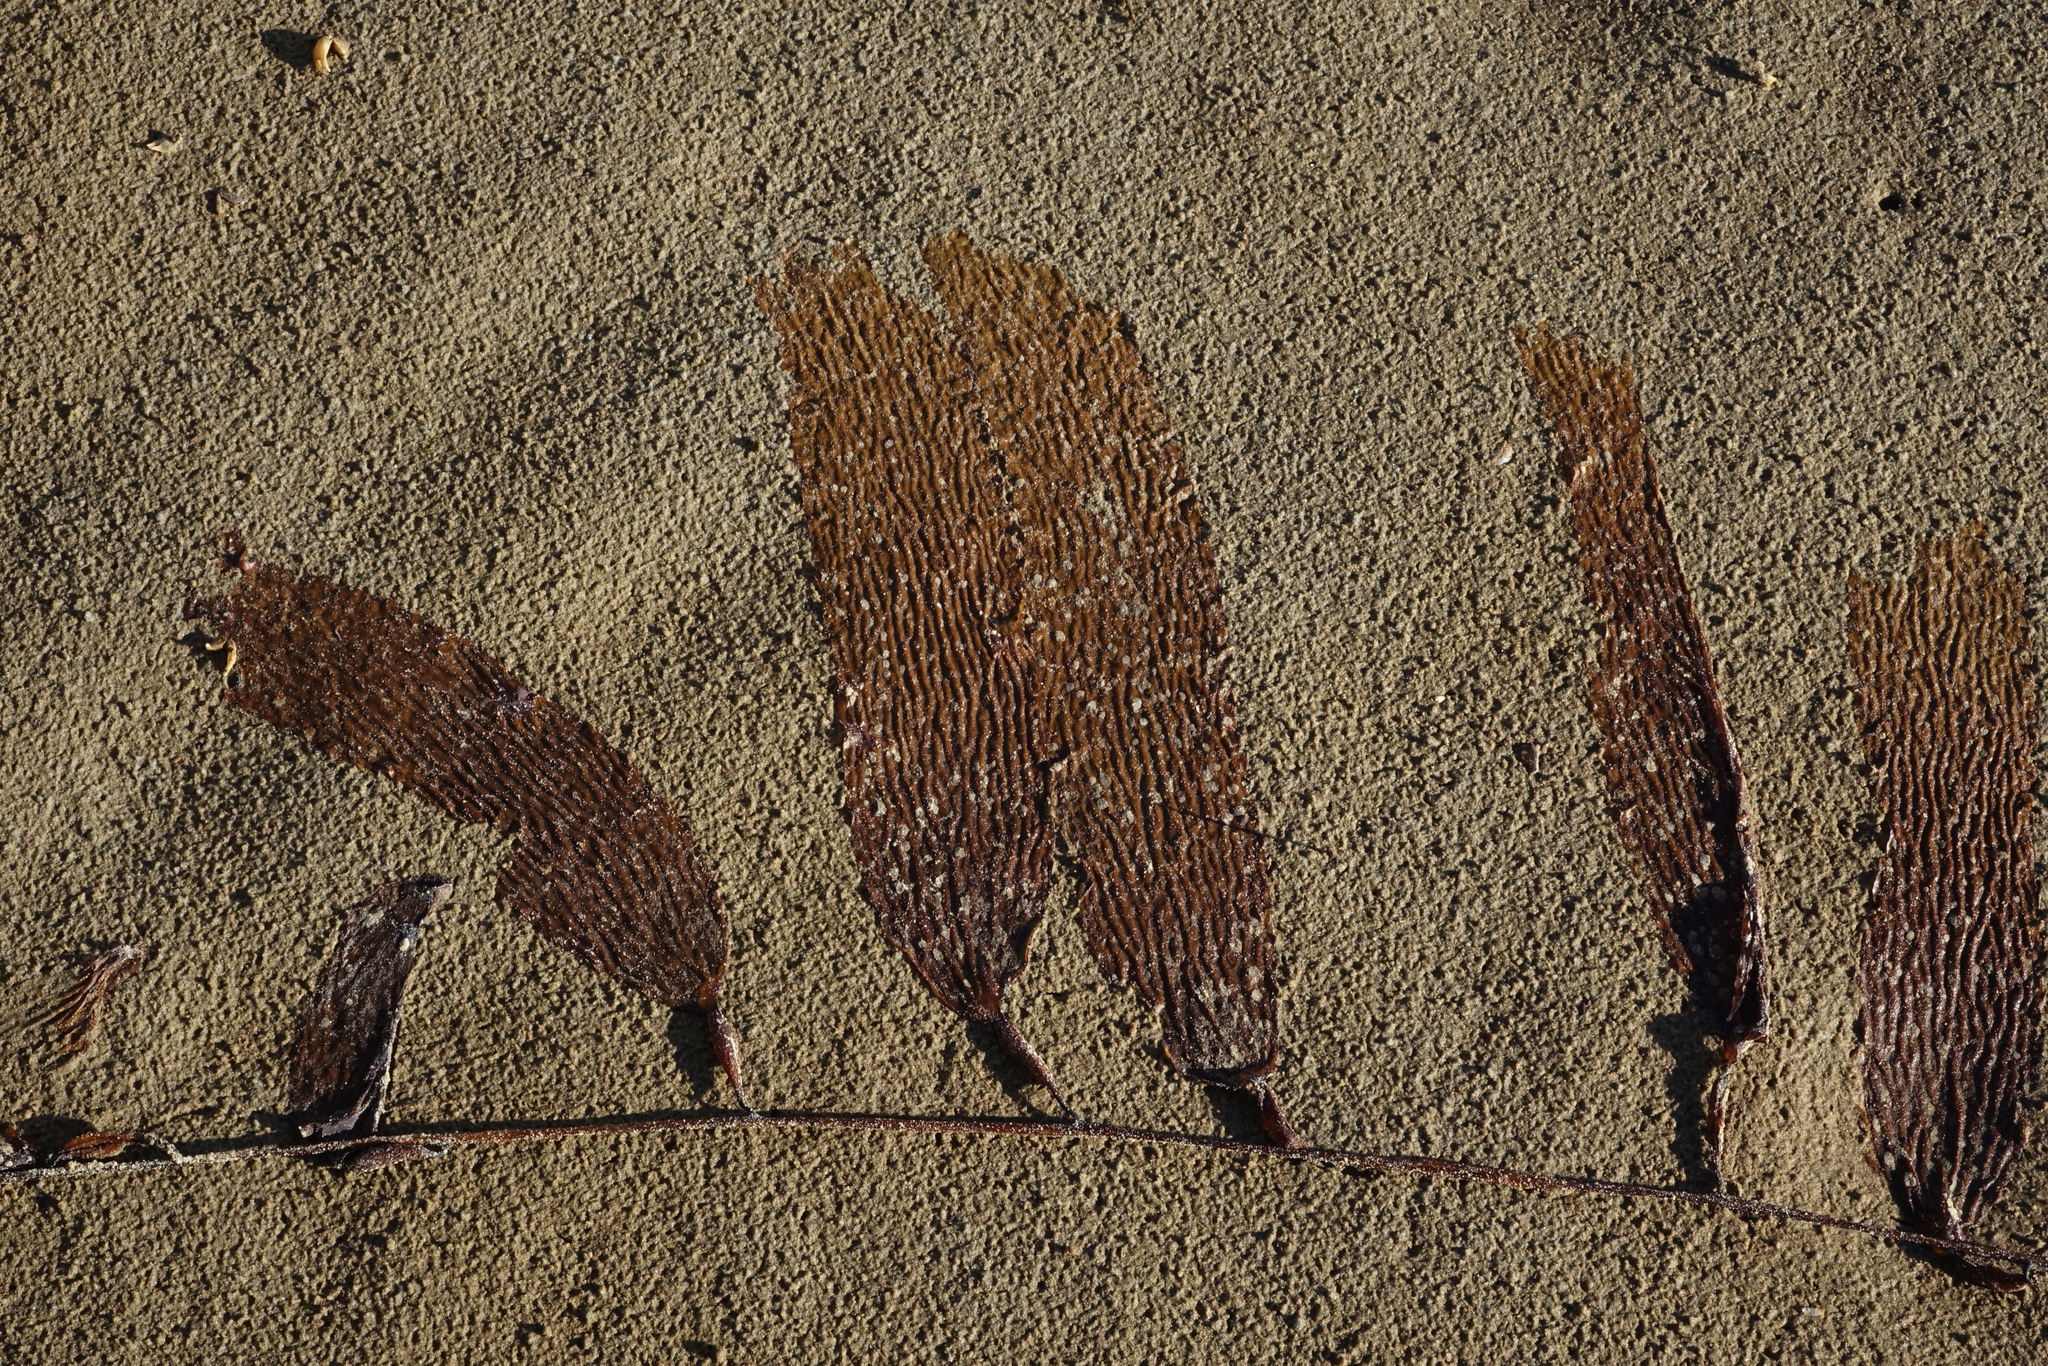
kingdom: Chromista
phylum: Ochrophyta
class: Phaeophyceae
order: Laminariales
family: Laminariaceae
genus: Macrocystis
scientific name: Macrocystis pyrifera
